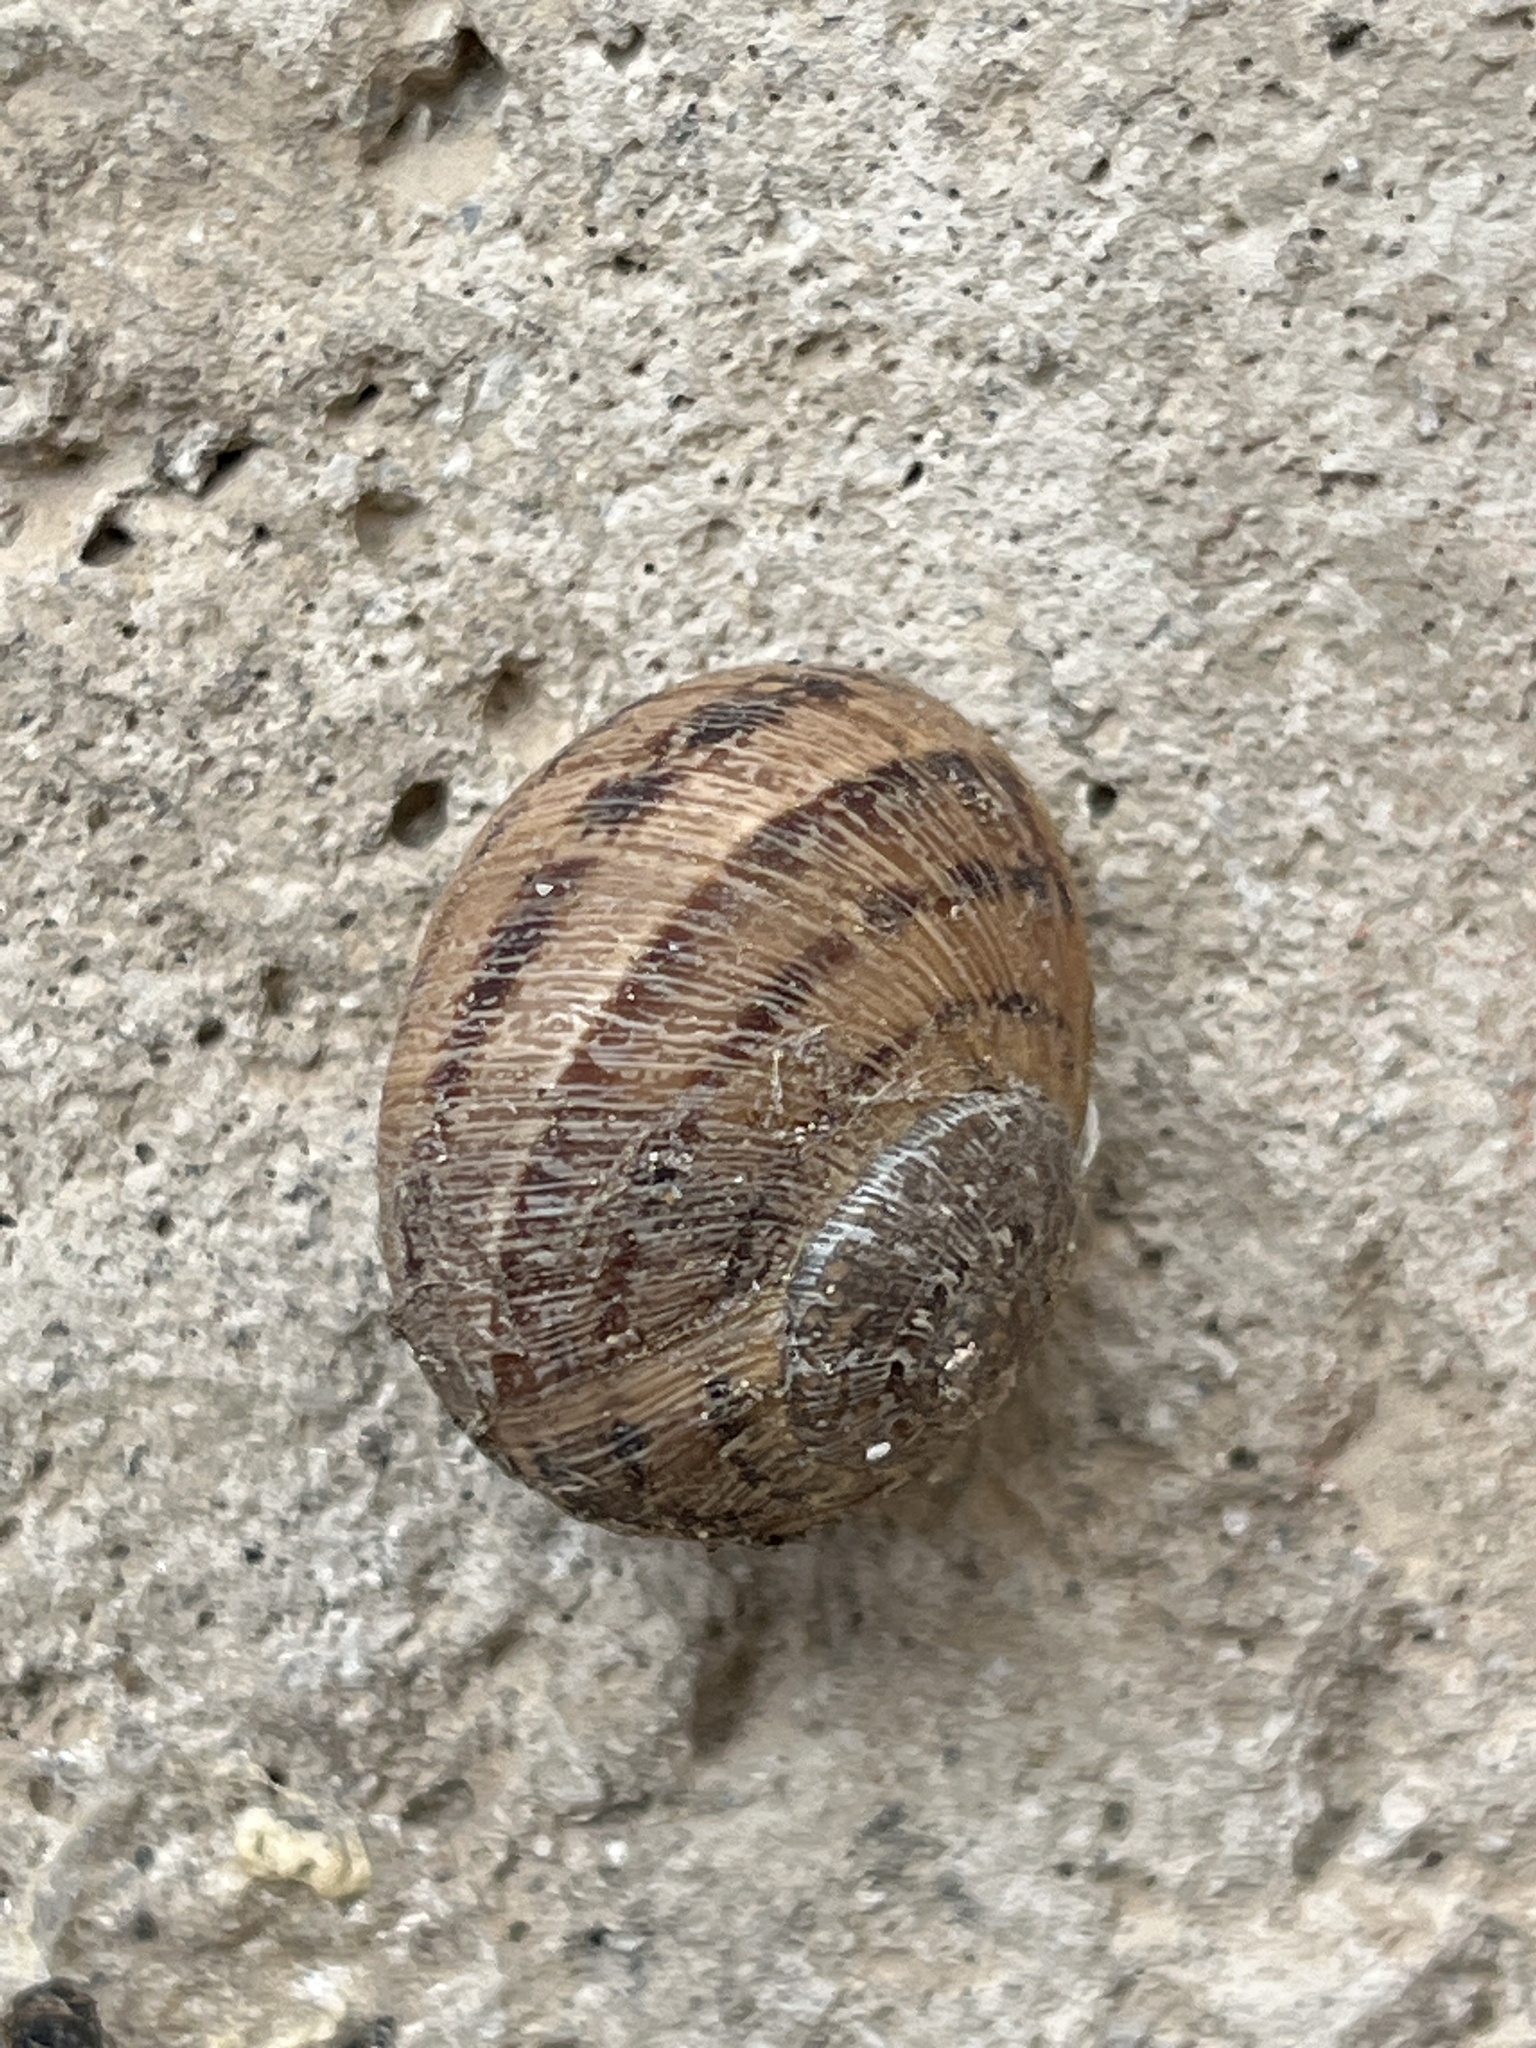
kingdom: Animalia
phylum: Mollusca
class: Gastropoda
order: Stylommatophora
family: Helicidae
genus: Cornu
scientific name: Cornu aspersum
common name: Brown garden snail
